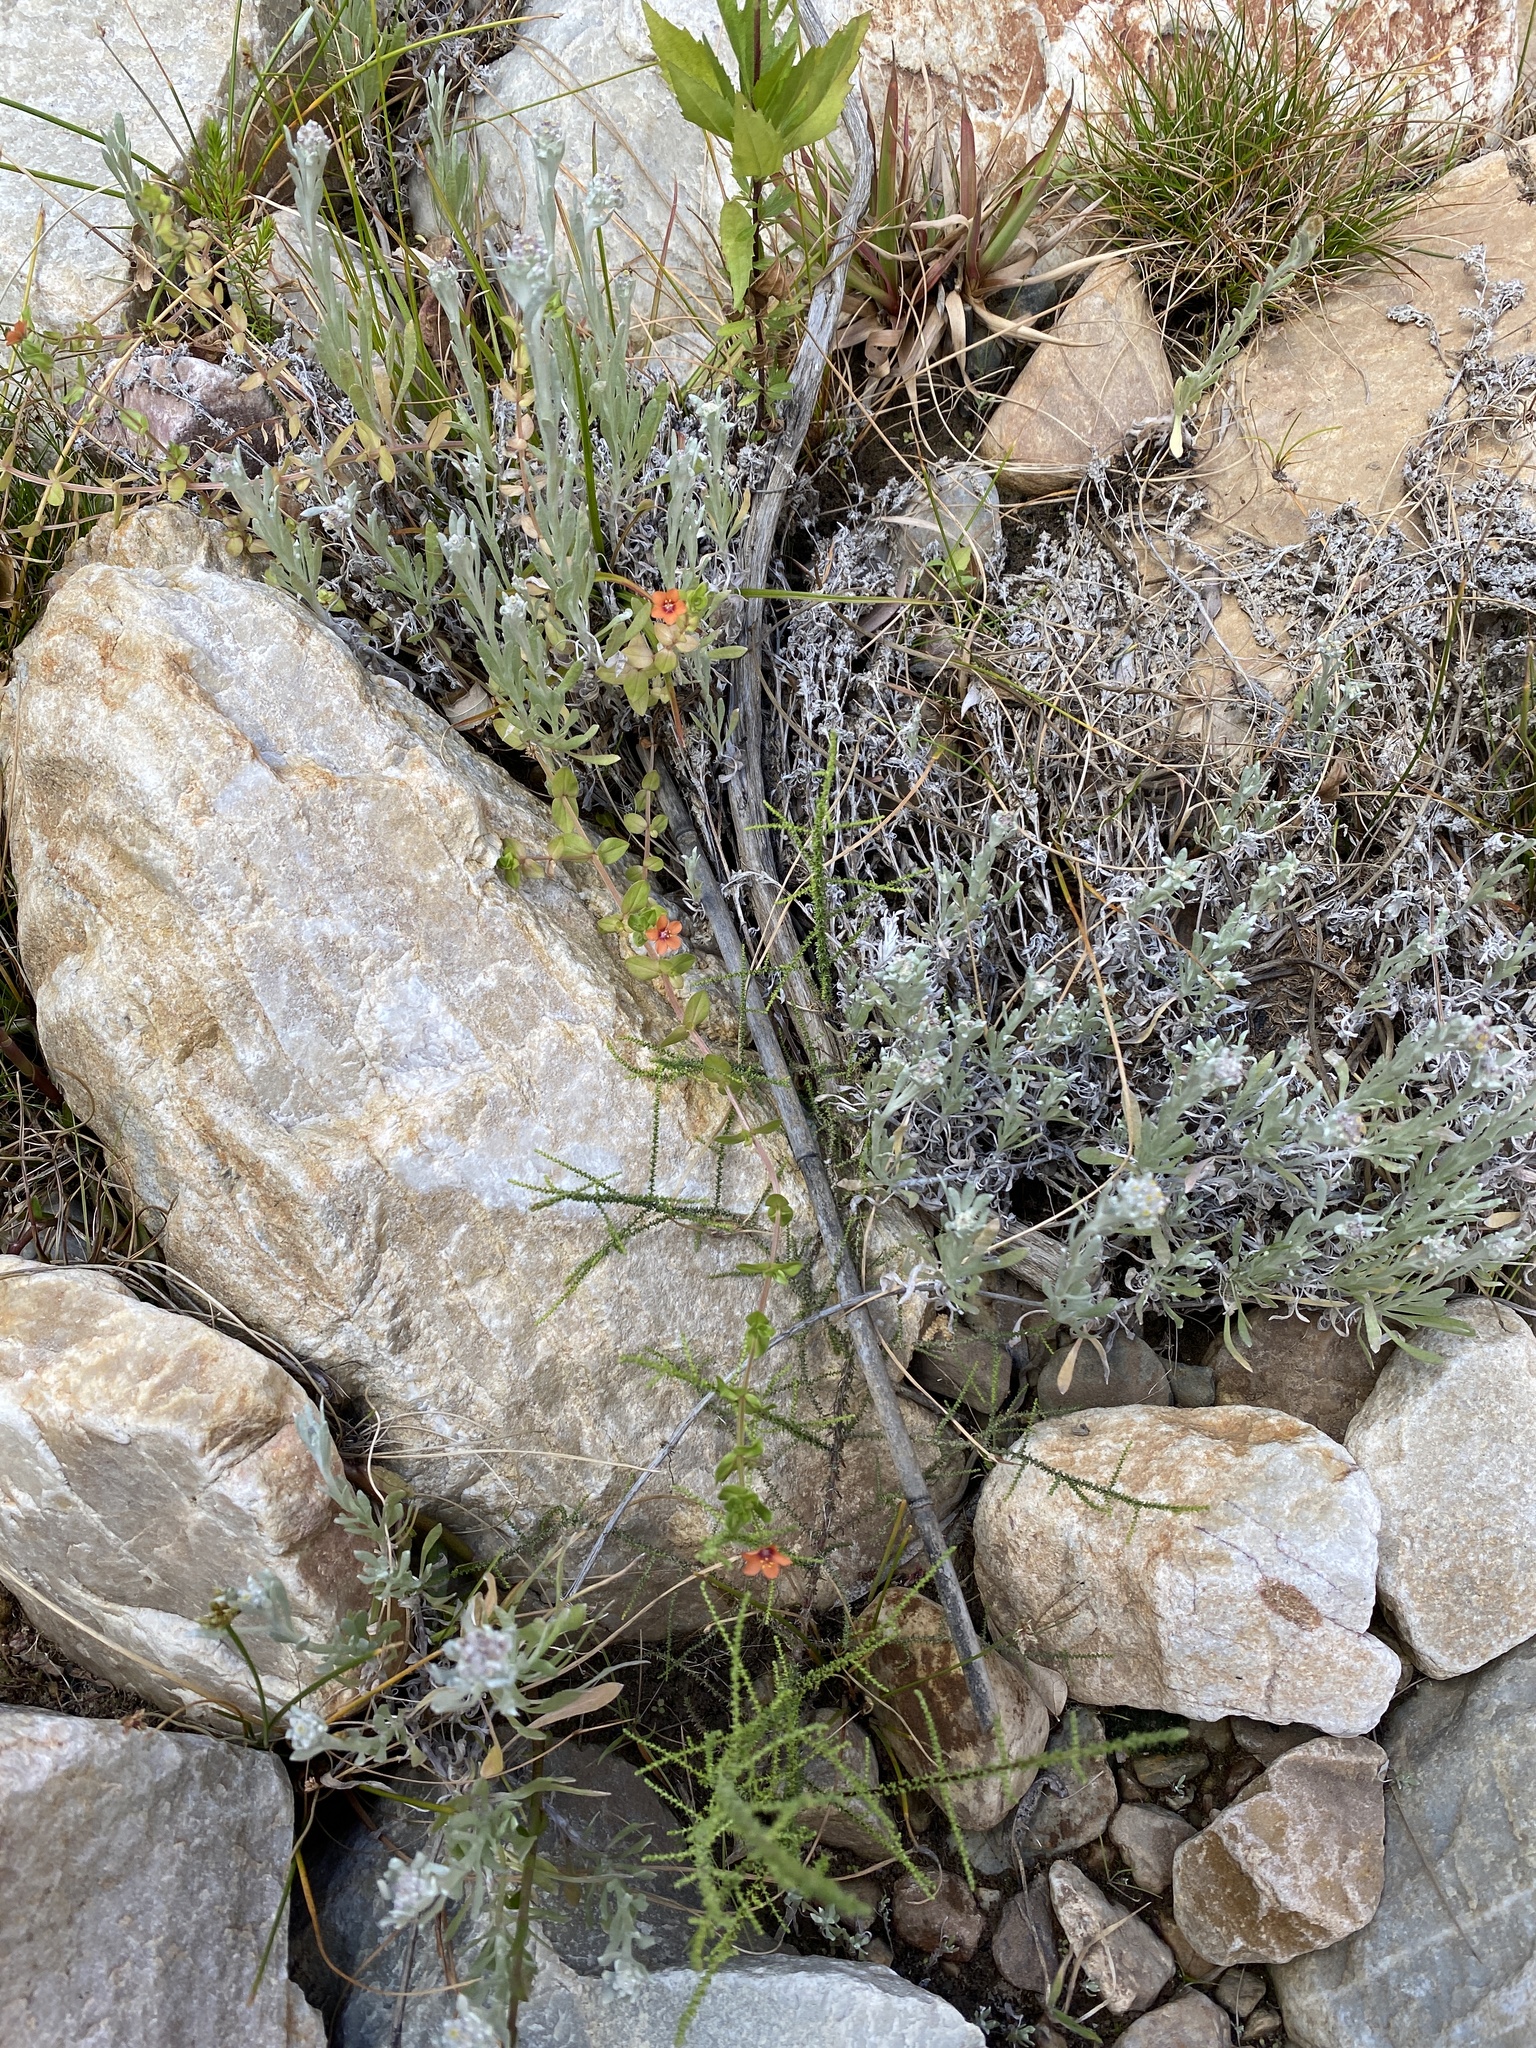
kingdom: Plantae
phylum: Tracheophyta
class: Magnoliopsida
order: Ericales
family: Primulaceae
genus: Lysimachia
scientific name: Lysimachia arvensis
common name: Scarlet pimpernel
